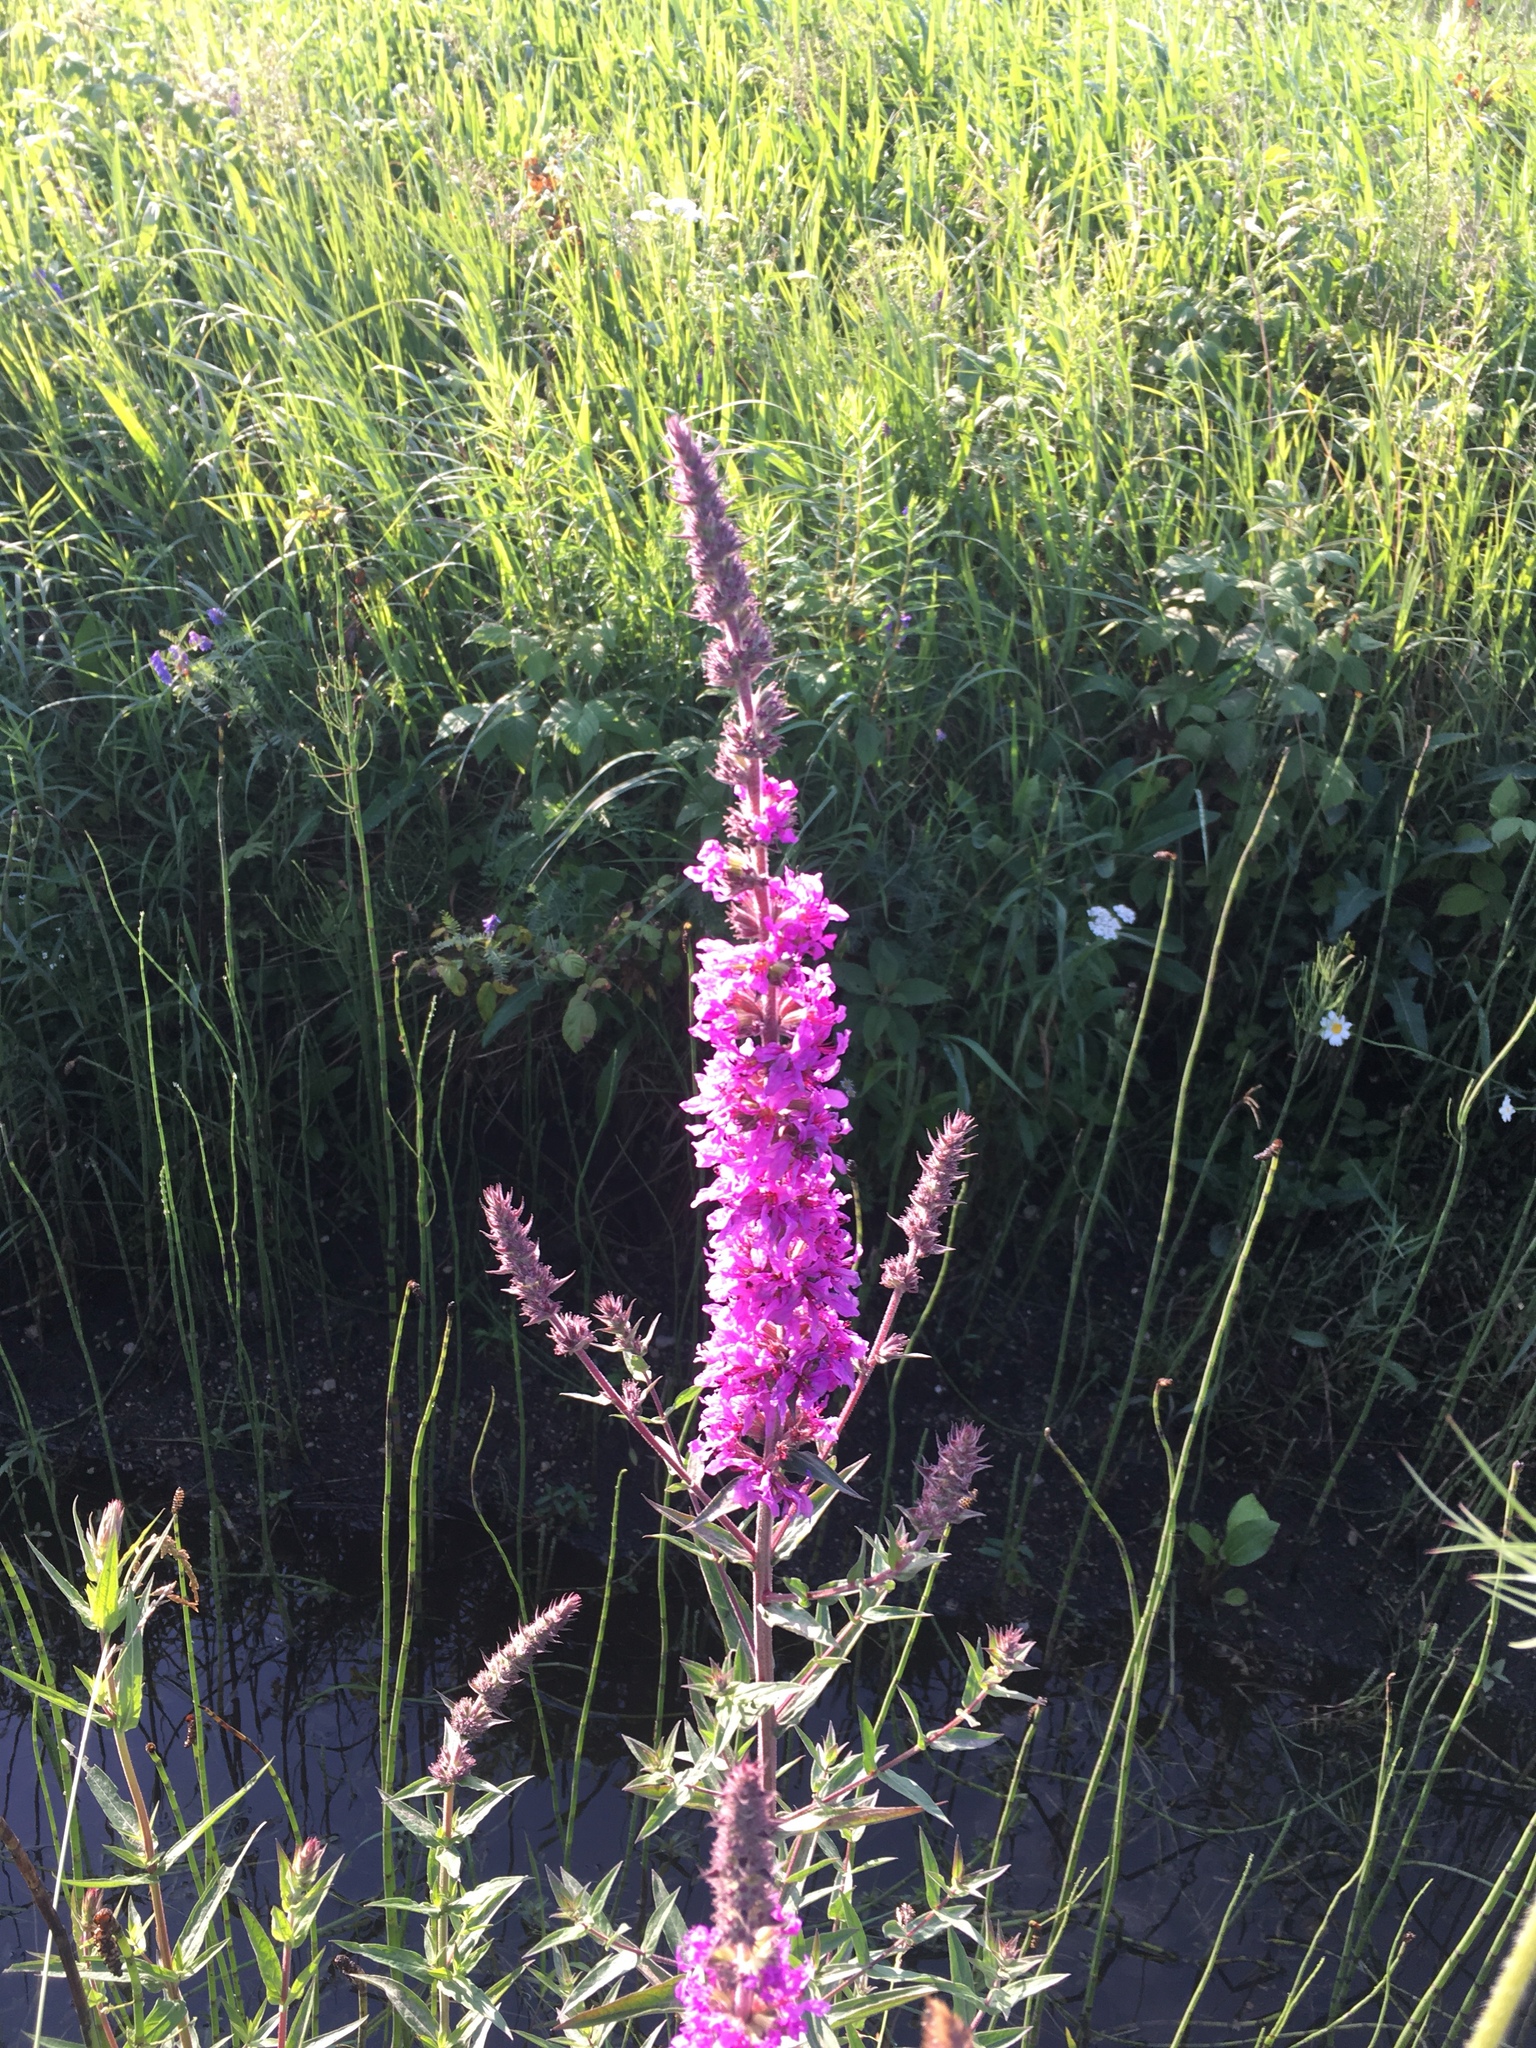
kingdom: Plantae
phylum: Tracheophyta
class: Magnoliopsida
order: Myrtales
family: Lythraceae
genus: Lythrum
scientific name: Lythrum salicaria
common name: Purple loosestrife
